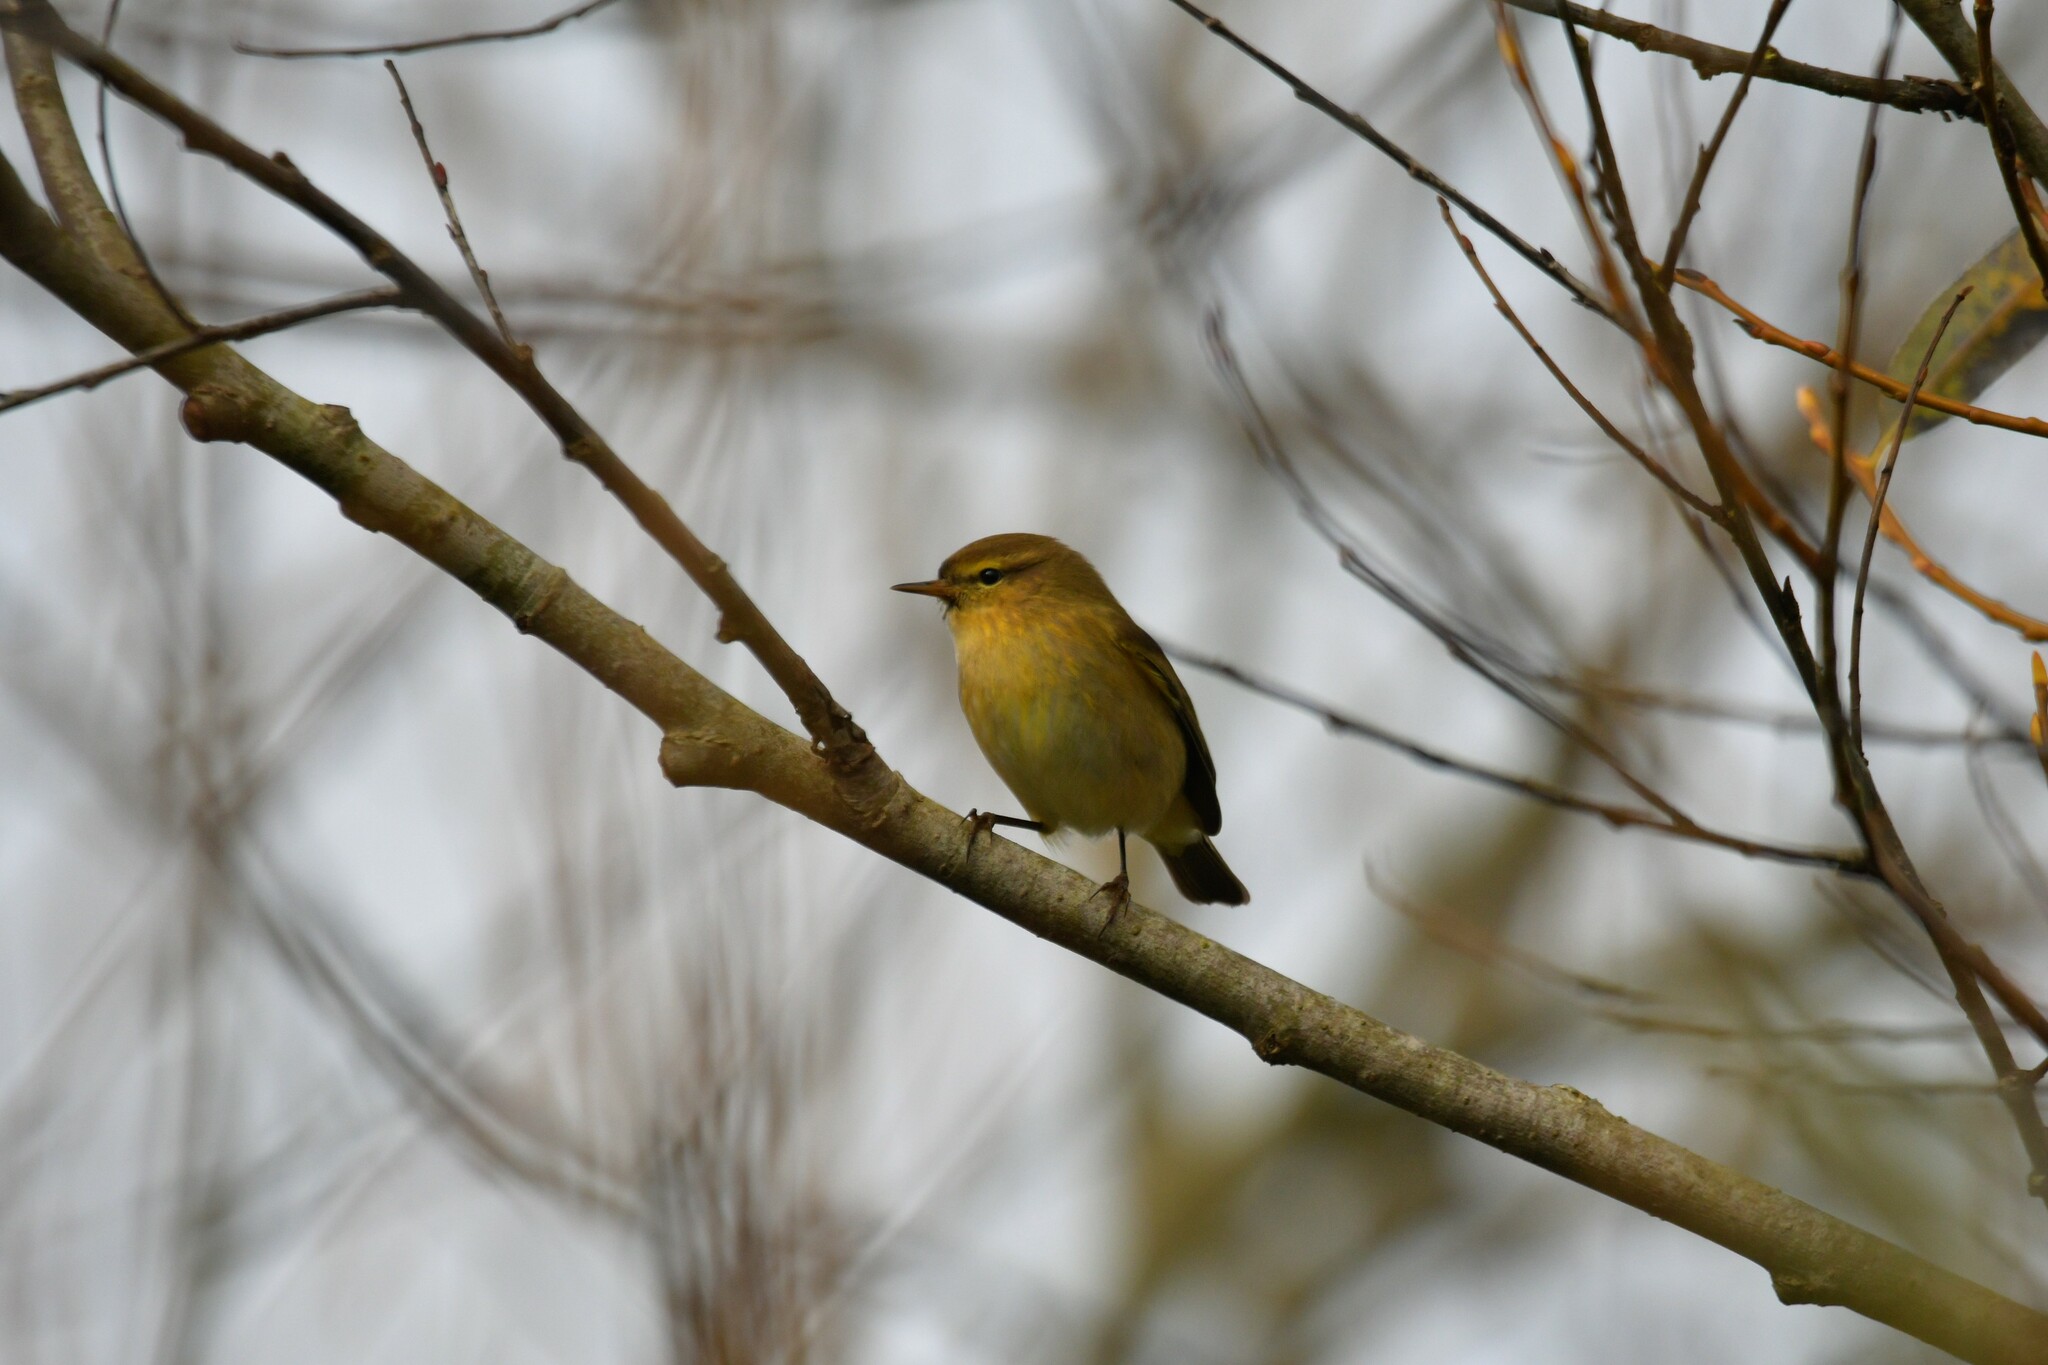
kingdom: Animalia
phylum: Chordata
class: Aves
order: Passeriformes
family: Phylloscopidae
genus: Phylloscopus
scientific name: Phylloscopus collybita
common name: Common chiffchaff
